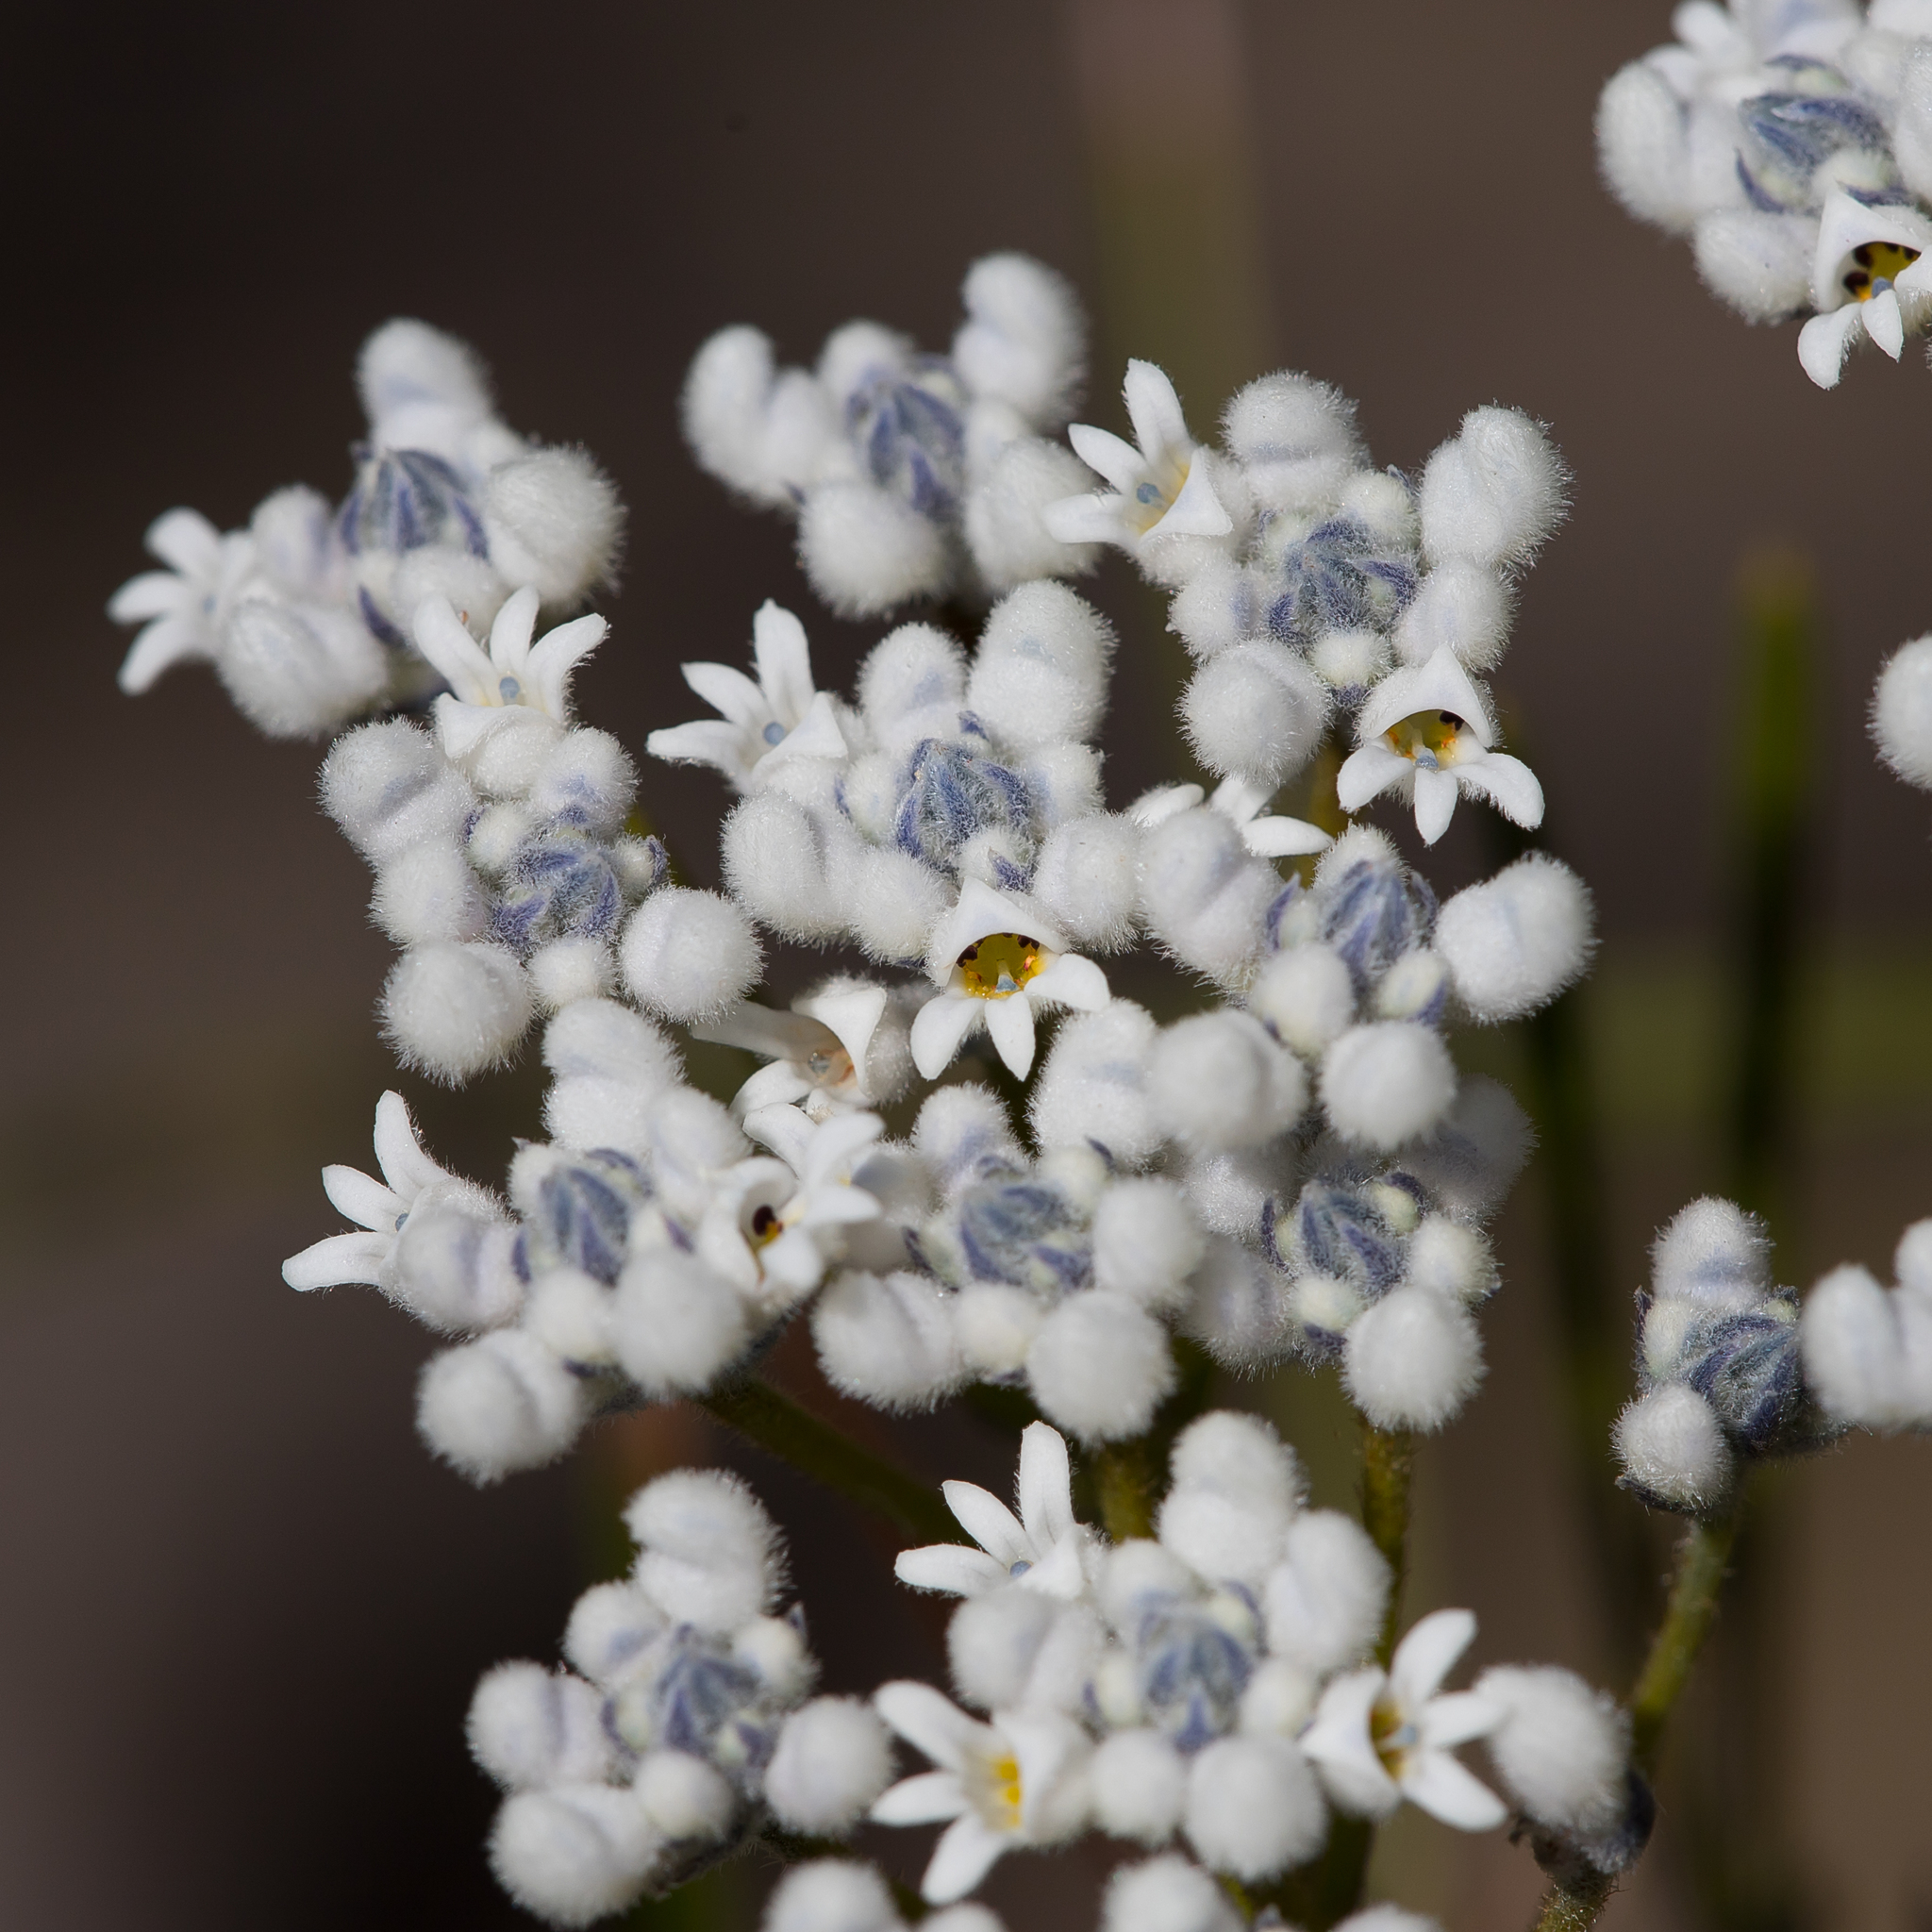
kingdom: Plantae
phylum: Tracheophyta
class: Magnoliopsida
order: Proteales
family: Proteaceae
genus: Conospermum
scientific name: Conospermum mitchellii
